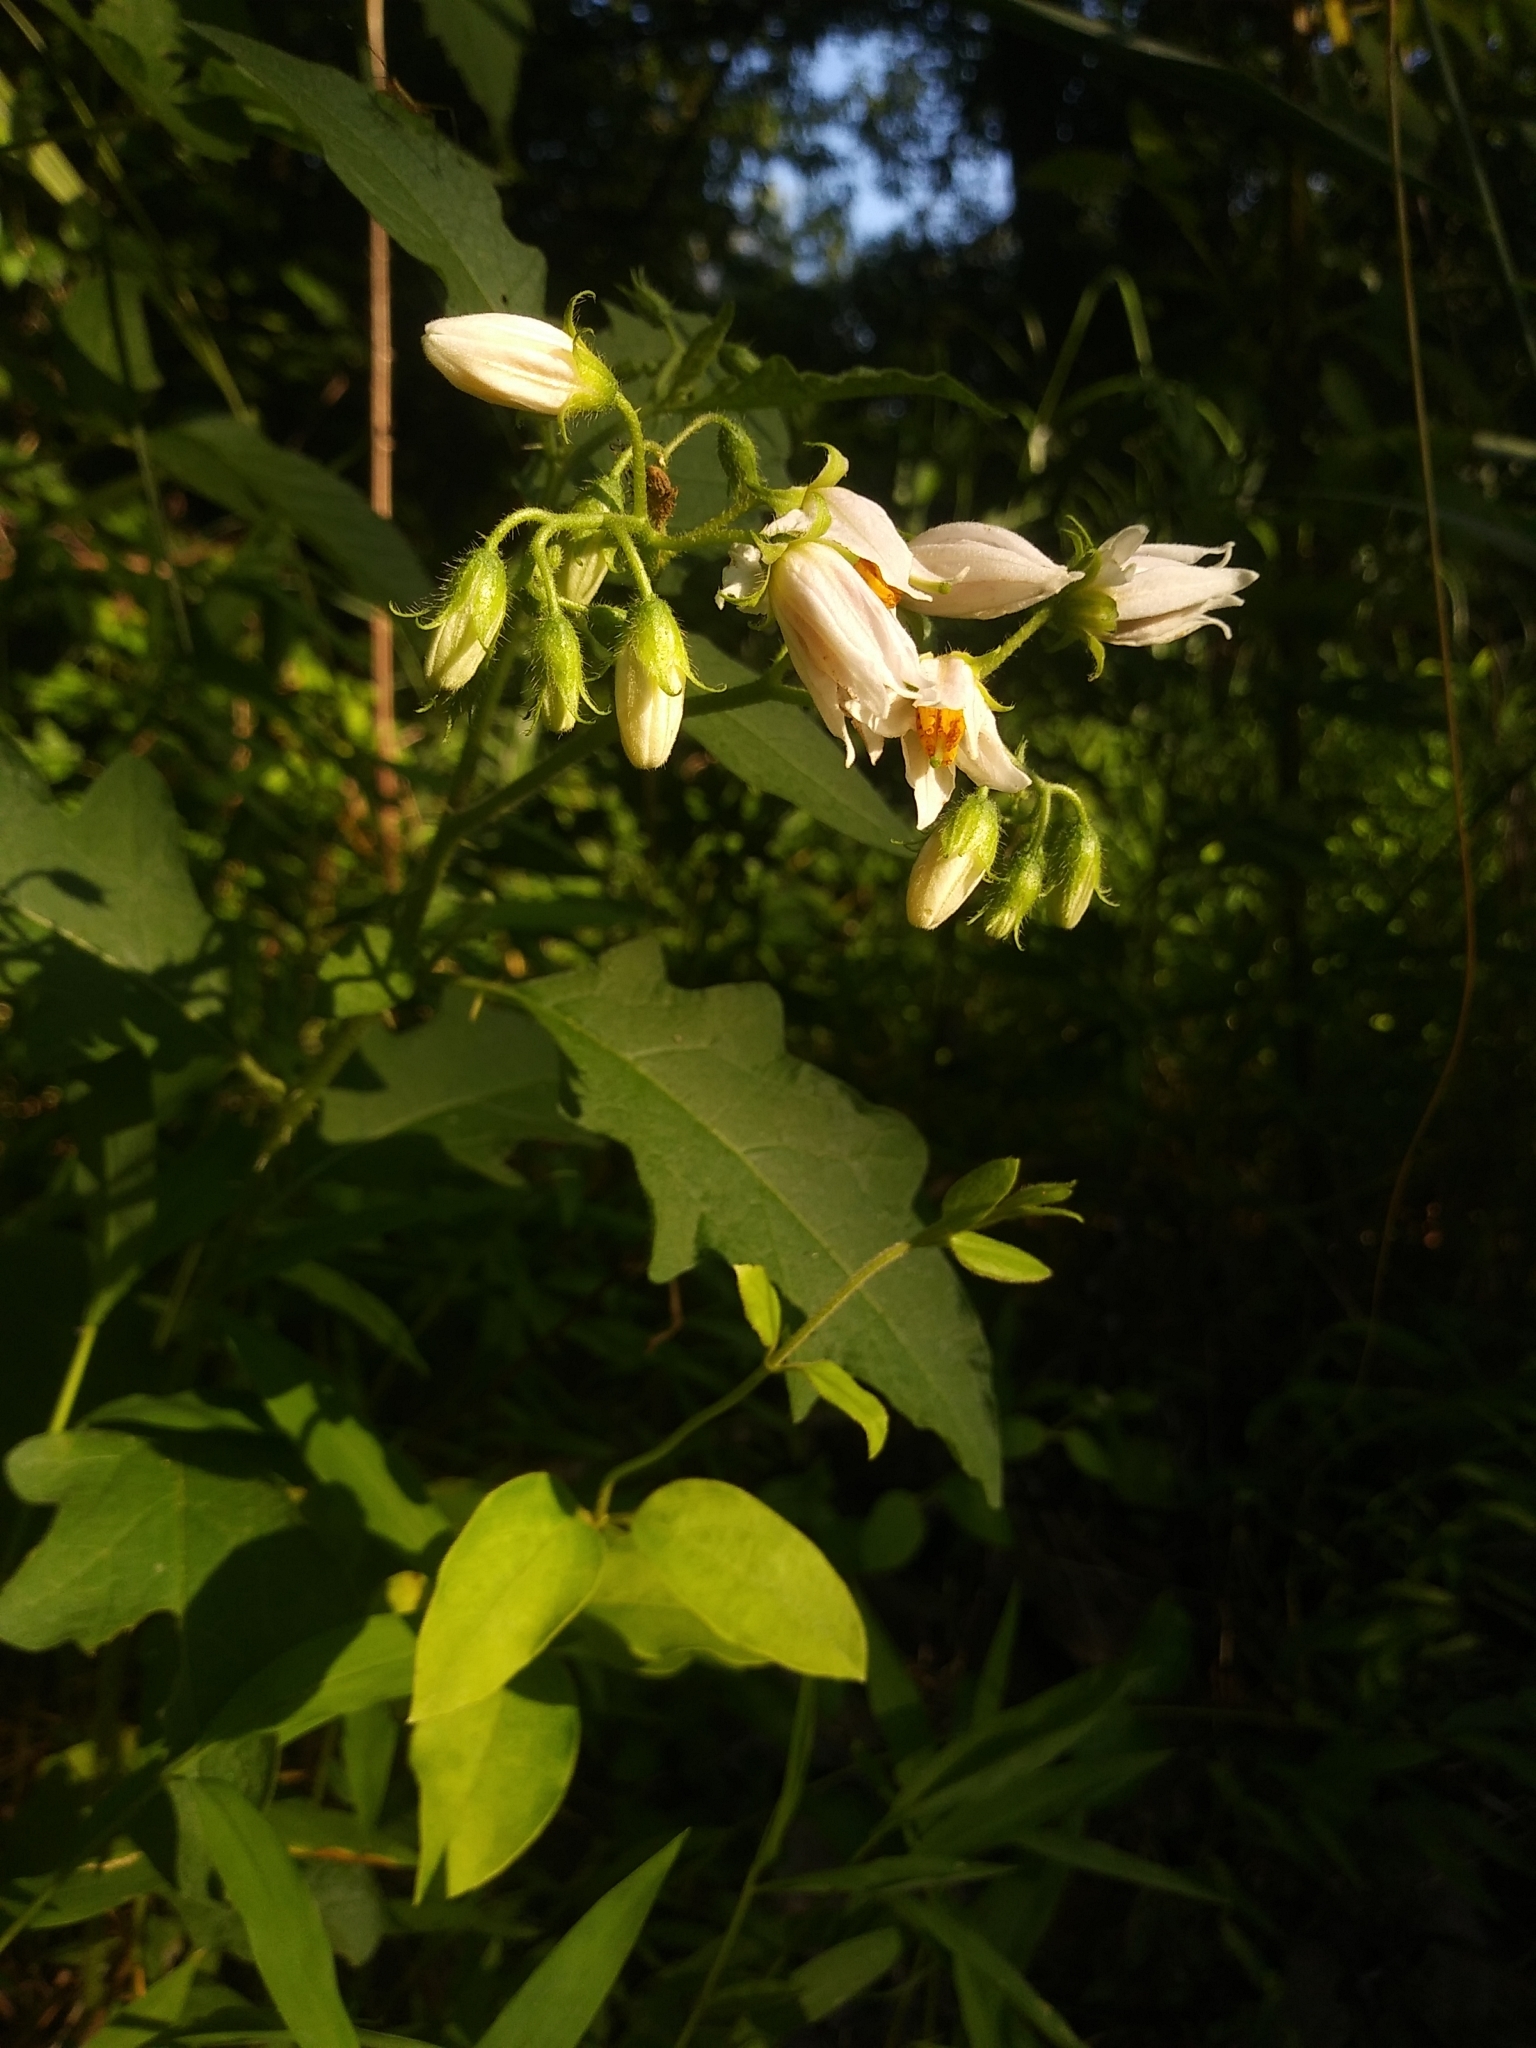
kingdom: Plantae
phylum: Tracheophyta
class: Magnoliopsida
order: Solanales
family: Solanaceae
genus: Solanum
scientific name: Solanum carolinense
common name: Horse-nettle
